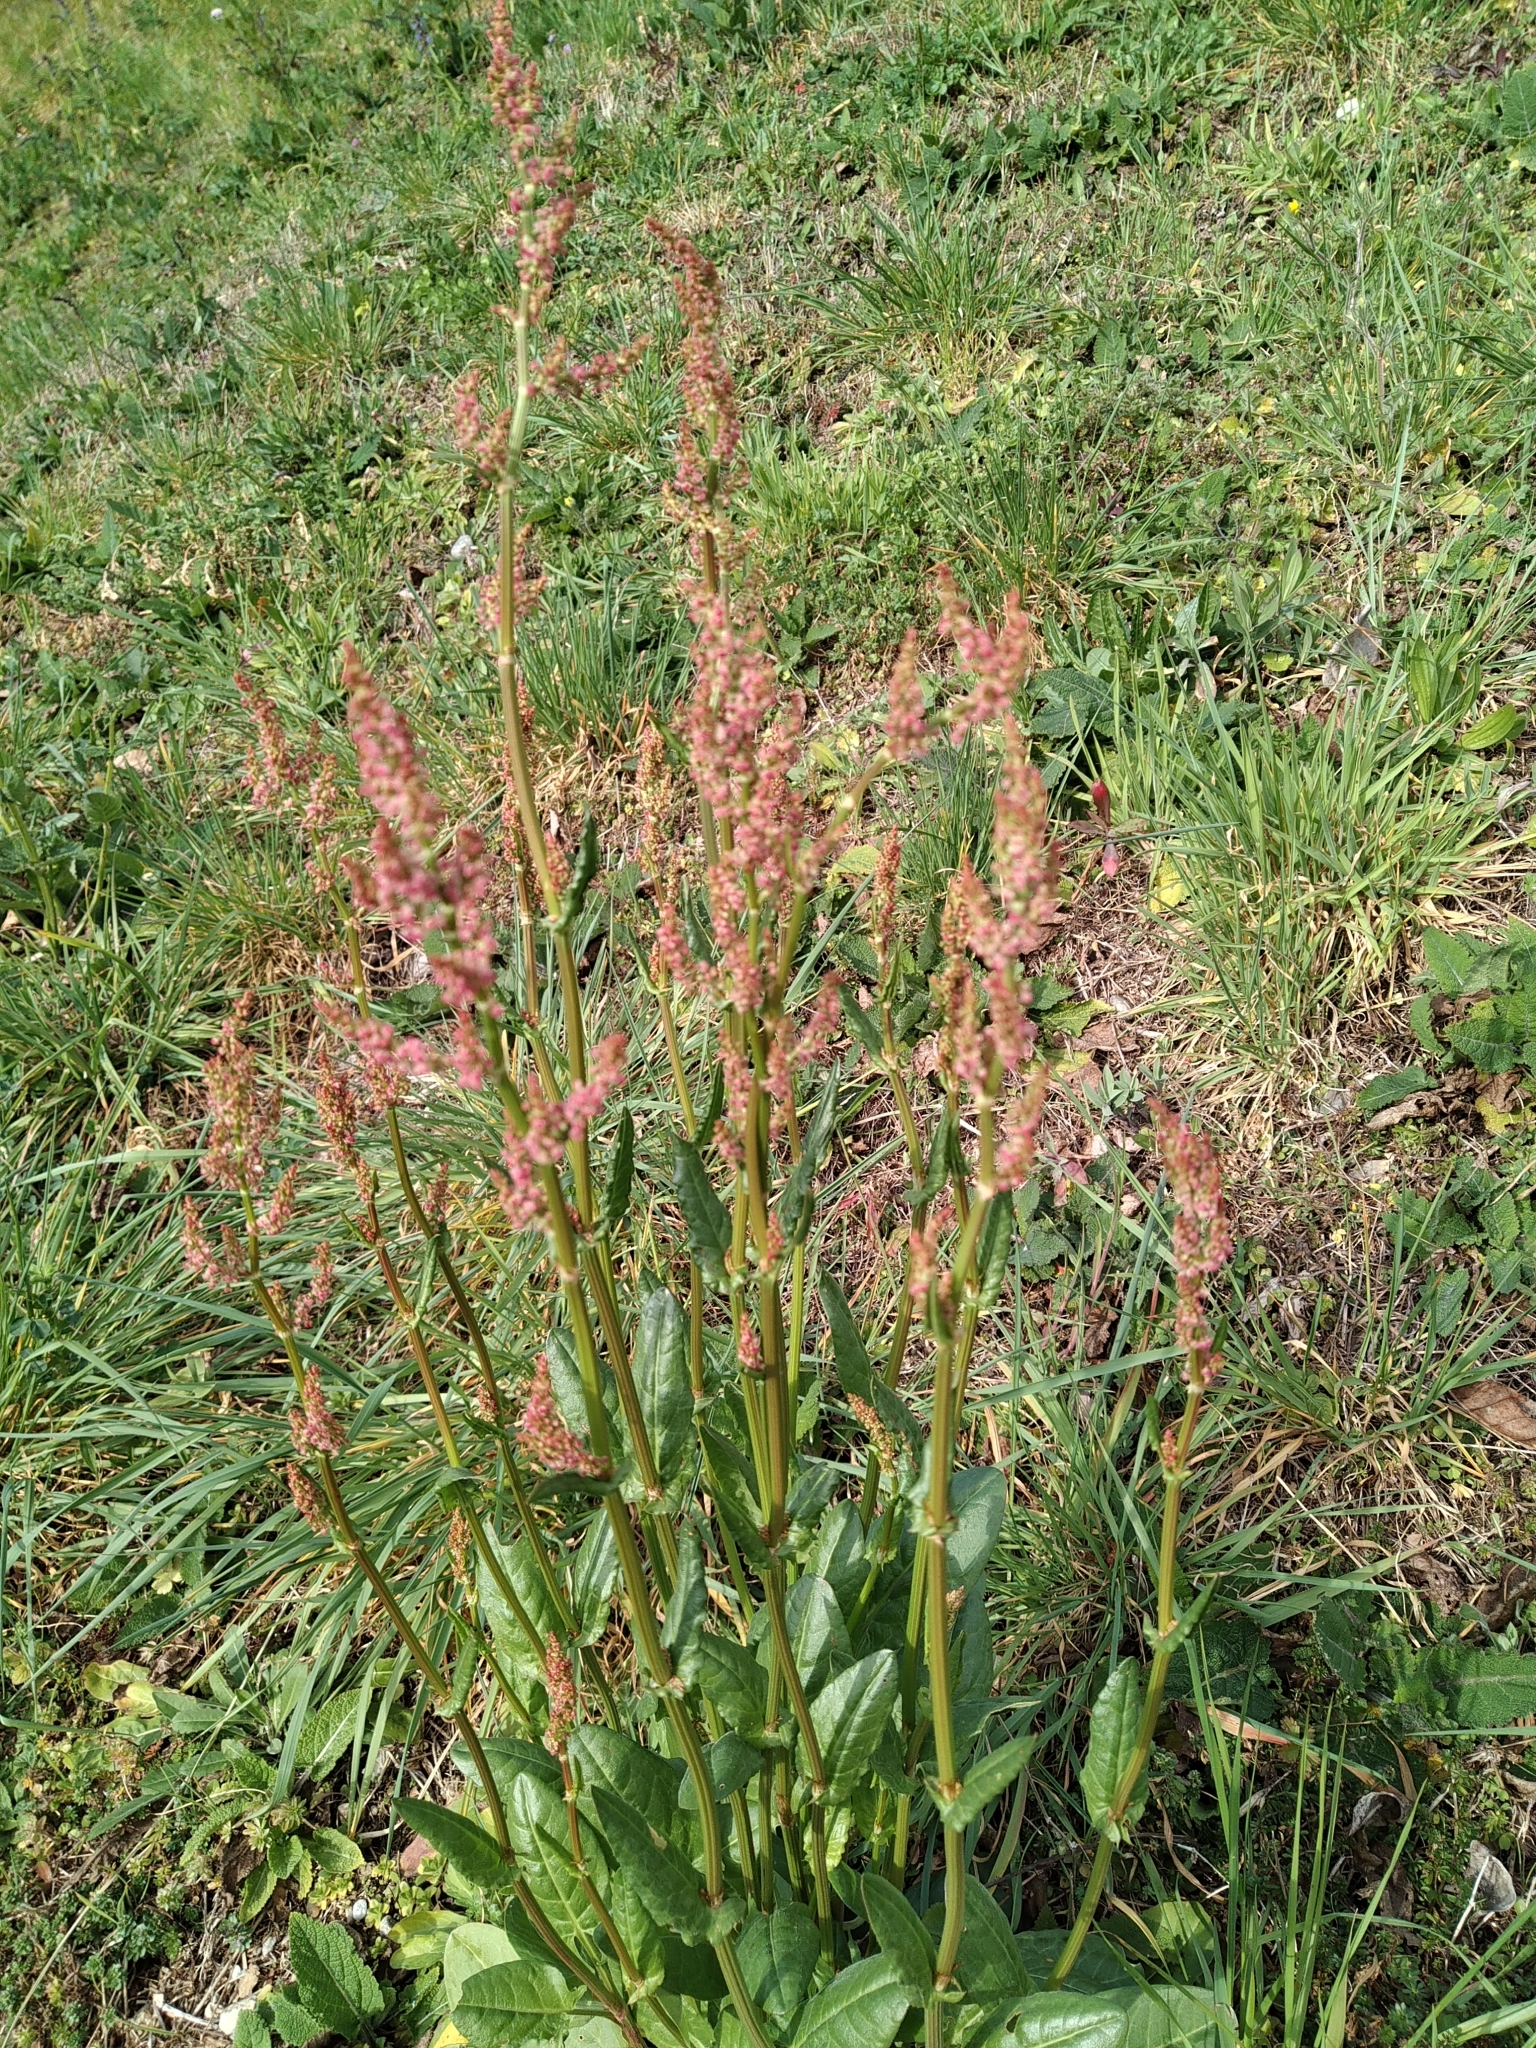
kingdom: Plantae
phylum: Tracheophyta
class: Magnoliopsida
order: Caryophyllales
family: Polygonaceae
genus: Rumex
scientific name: Rumex acetosa
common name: Garden sorrel
